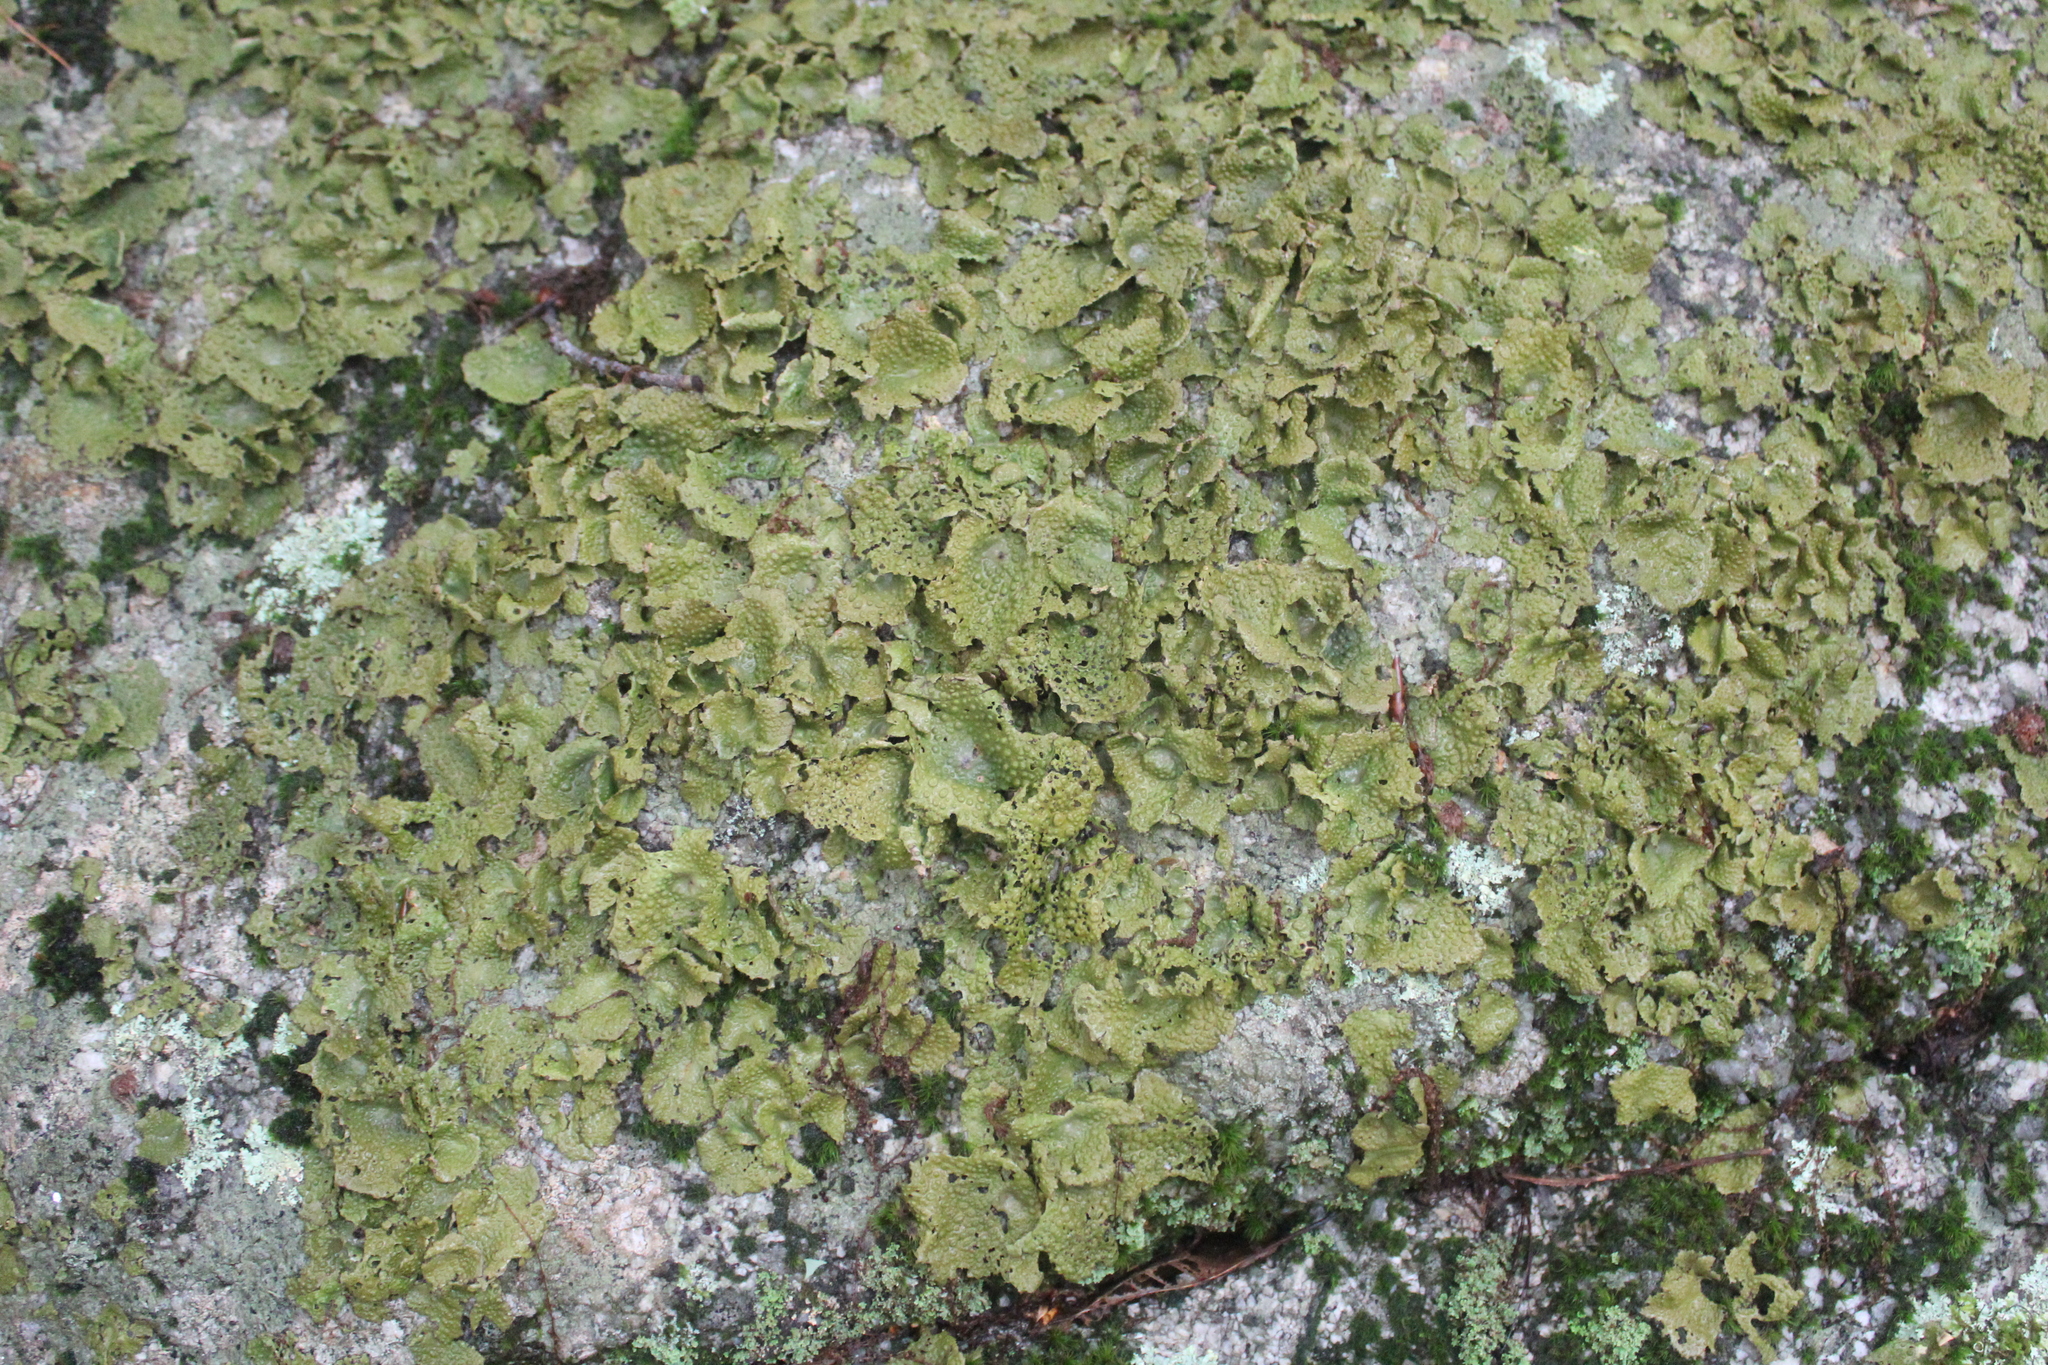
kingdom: Fungi
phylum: Ascomycota
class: Lecanoromycetes
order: Umbilicariales
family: Umbilicariaceae
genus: Lasallia
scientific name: Lasallia papulosa
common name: Common toadskin lichen
